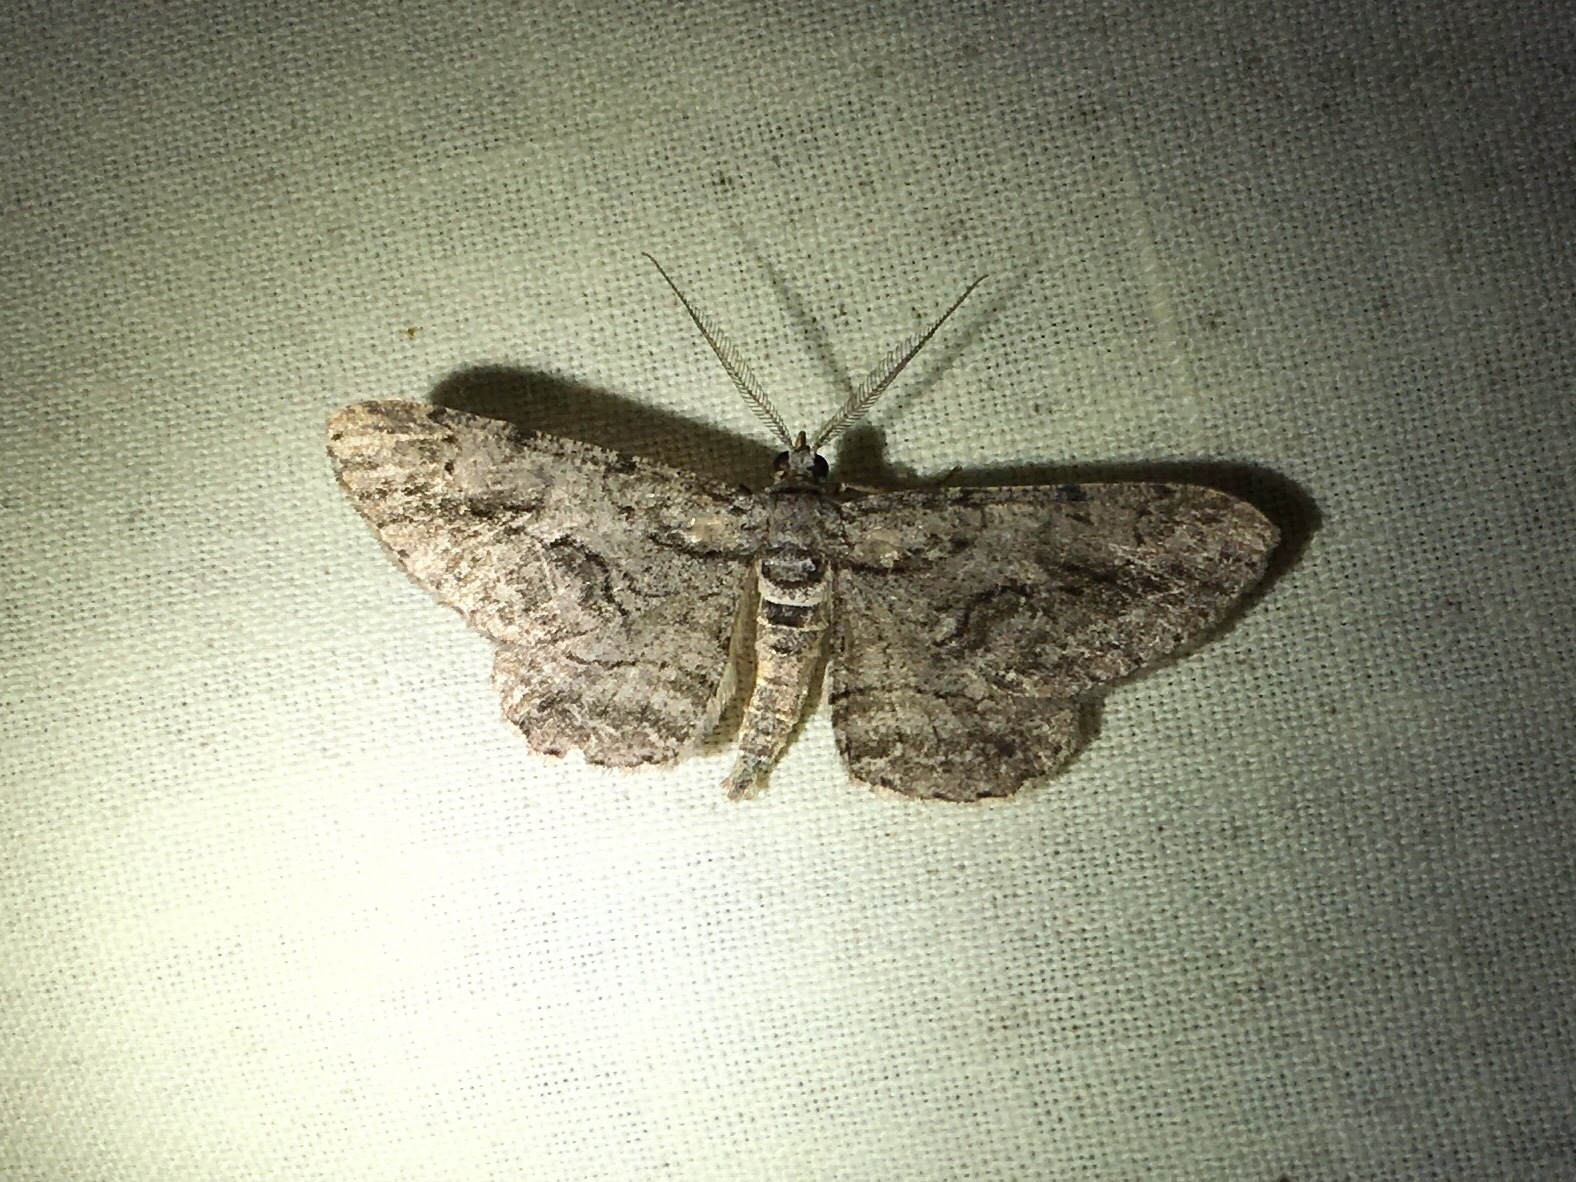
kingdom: Animalia
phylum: Arthropoda
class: Insecta
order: Lepidoptera
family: Geometridae
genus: Anavitrinella
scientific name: Anavitrinella pampinaria
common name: Common gray
